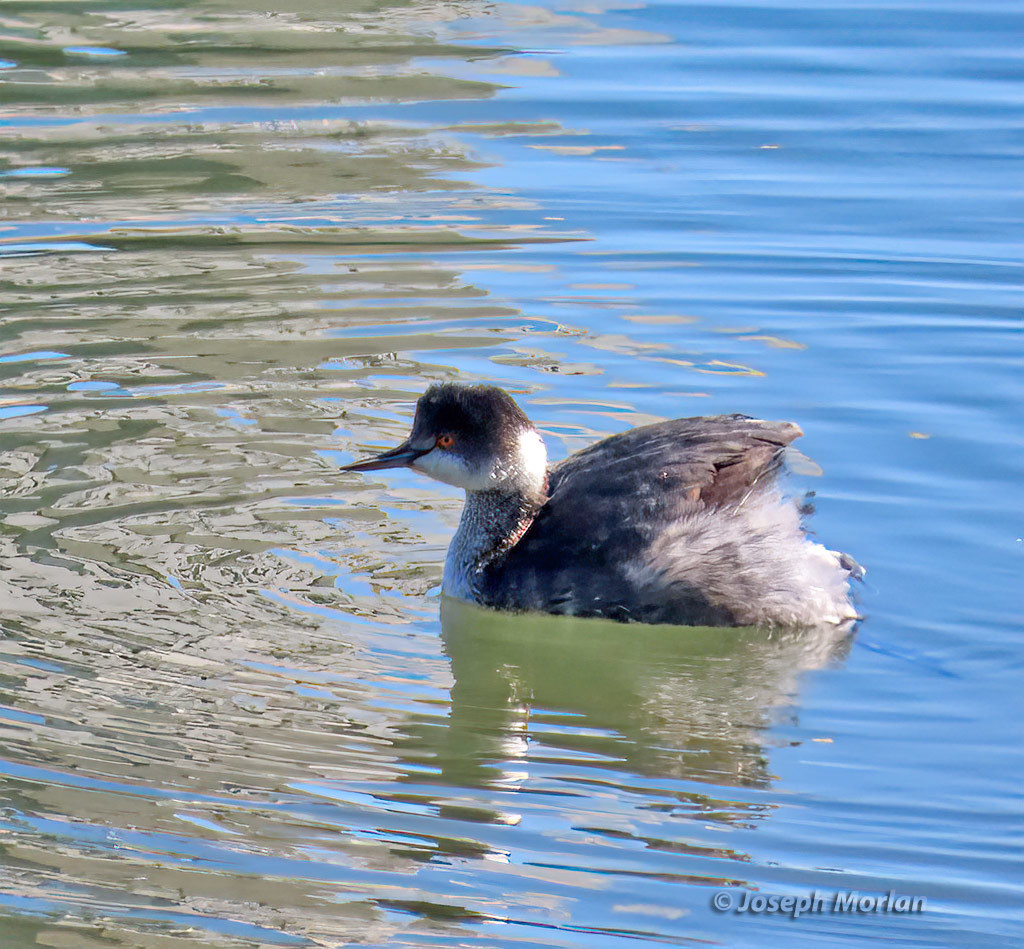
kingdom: Animalia
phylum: Chordata
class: Aves
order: Podicipediformes
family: Podicipedidae
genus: Podiceps
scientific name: Podiceps nigricollis
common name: Black-necked grebe
